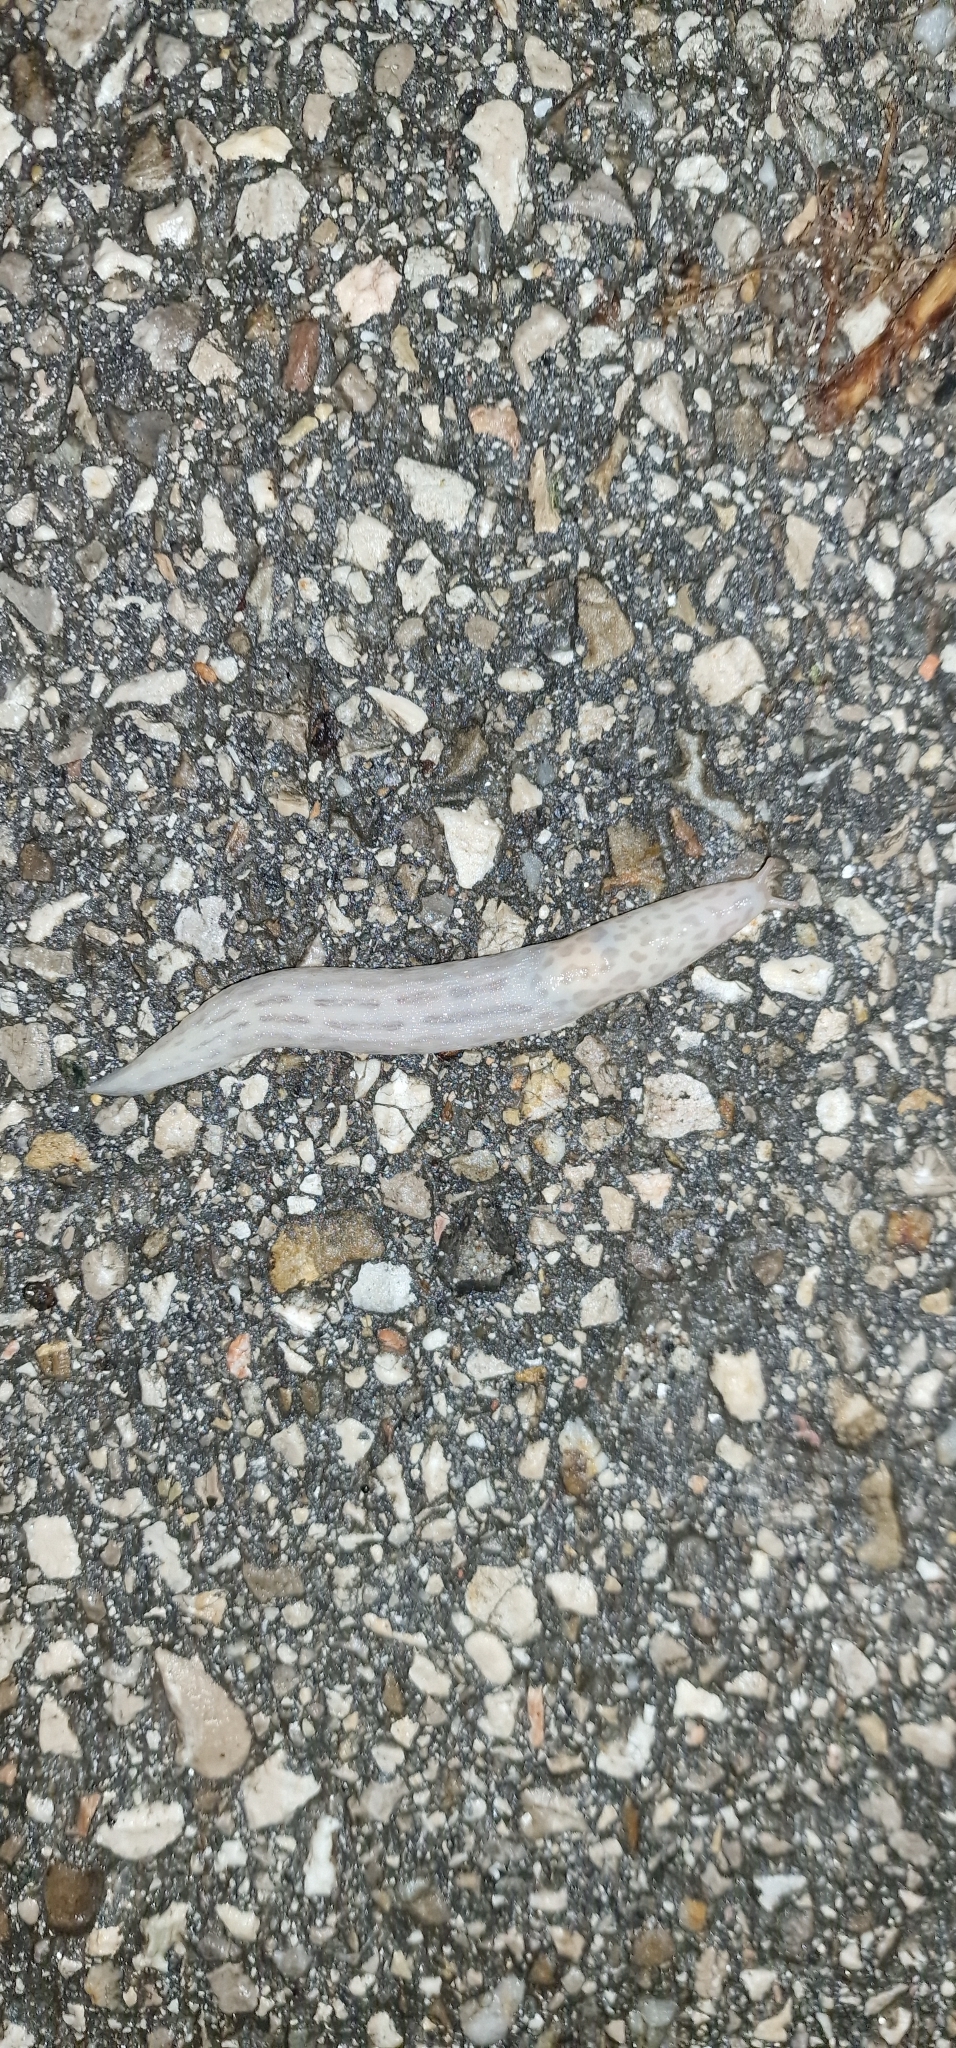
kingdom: Animalia
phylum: Mollusca
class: Gastropoda
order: Stylommatophora
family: Limacidae
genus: Limax
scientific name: Limax maximus
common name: Great grey slug
